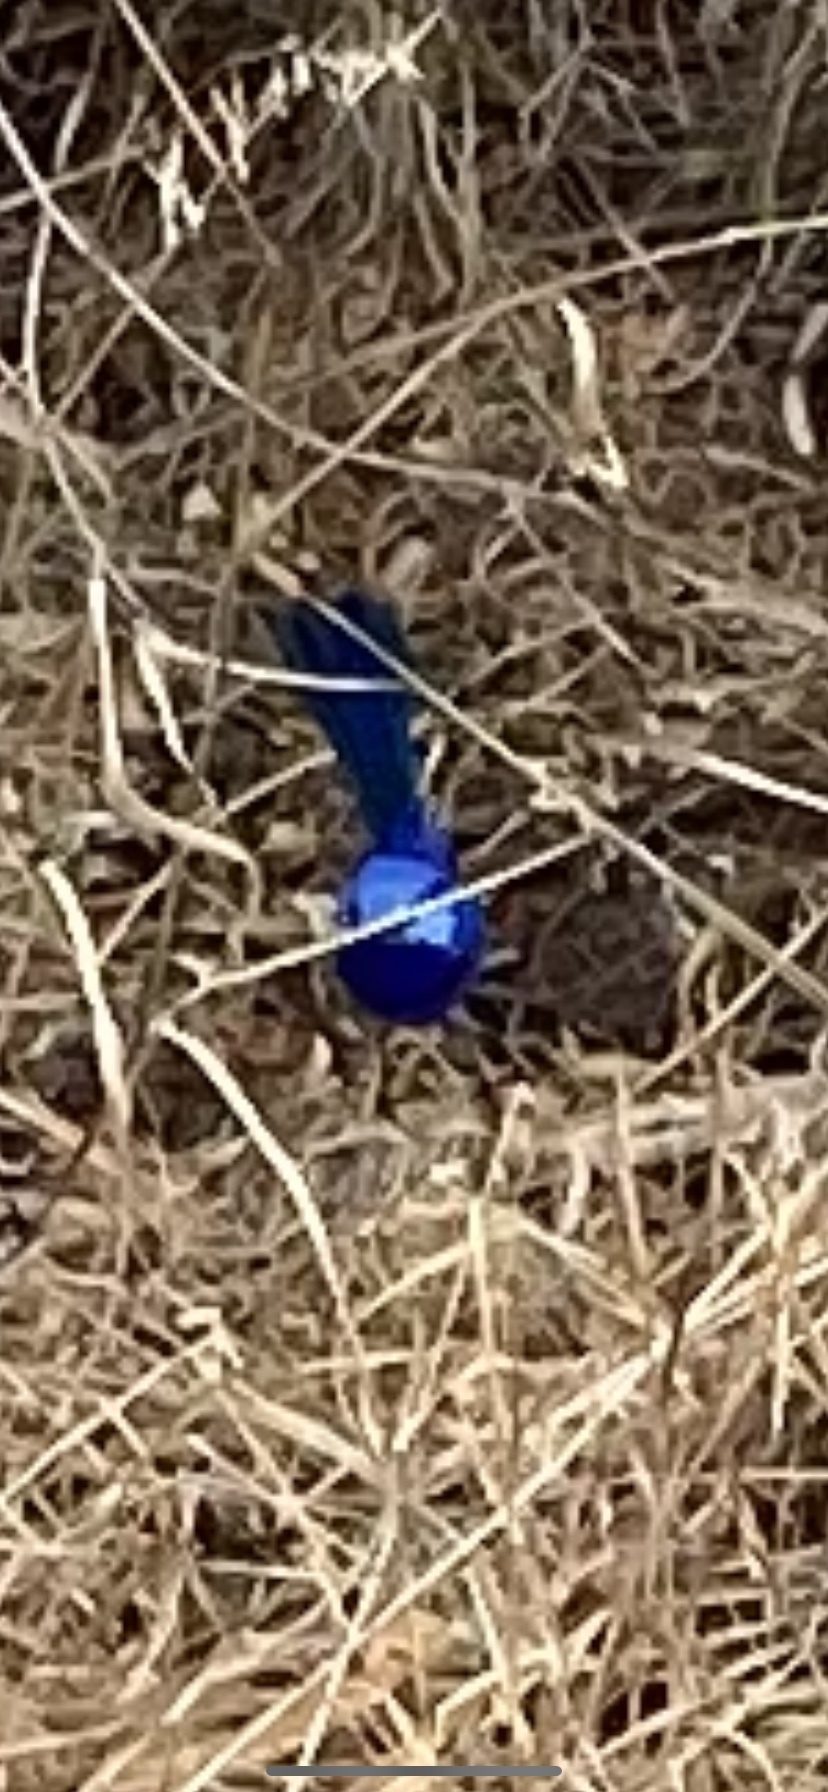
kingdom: Animalia
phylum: Chordata
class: Aves
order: Passeriformes
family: Maluridae
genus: Malurus
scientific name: Malurus splendens
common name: Splendid fairywren
